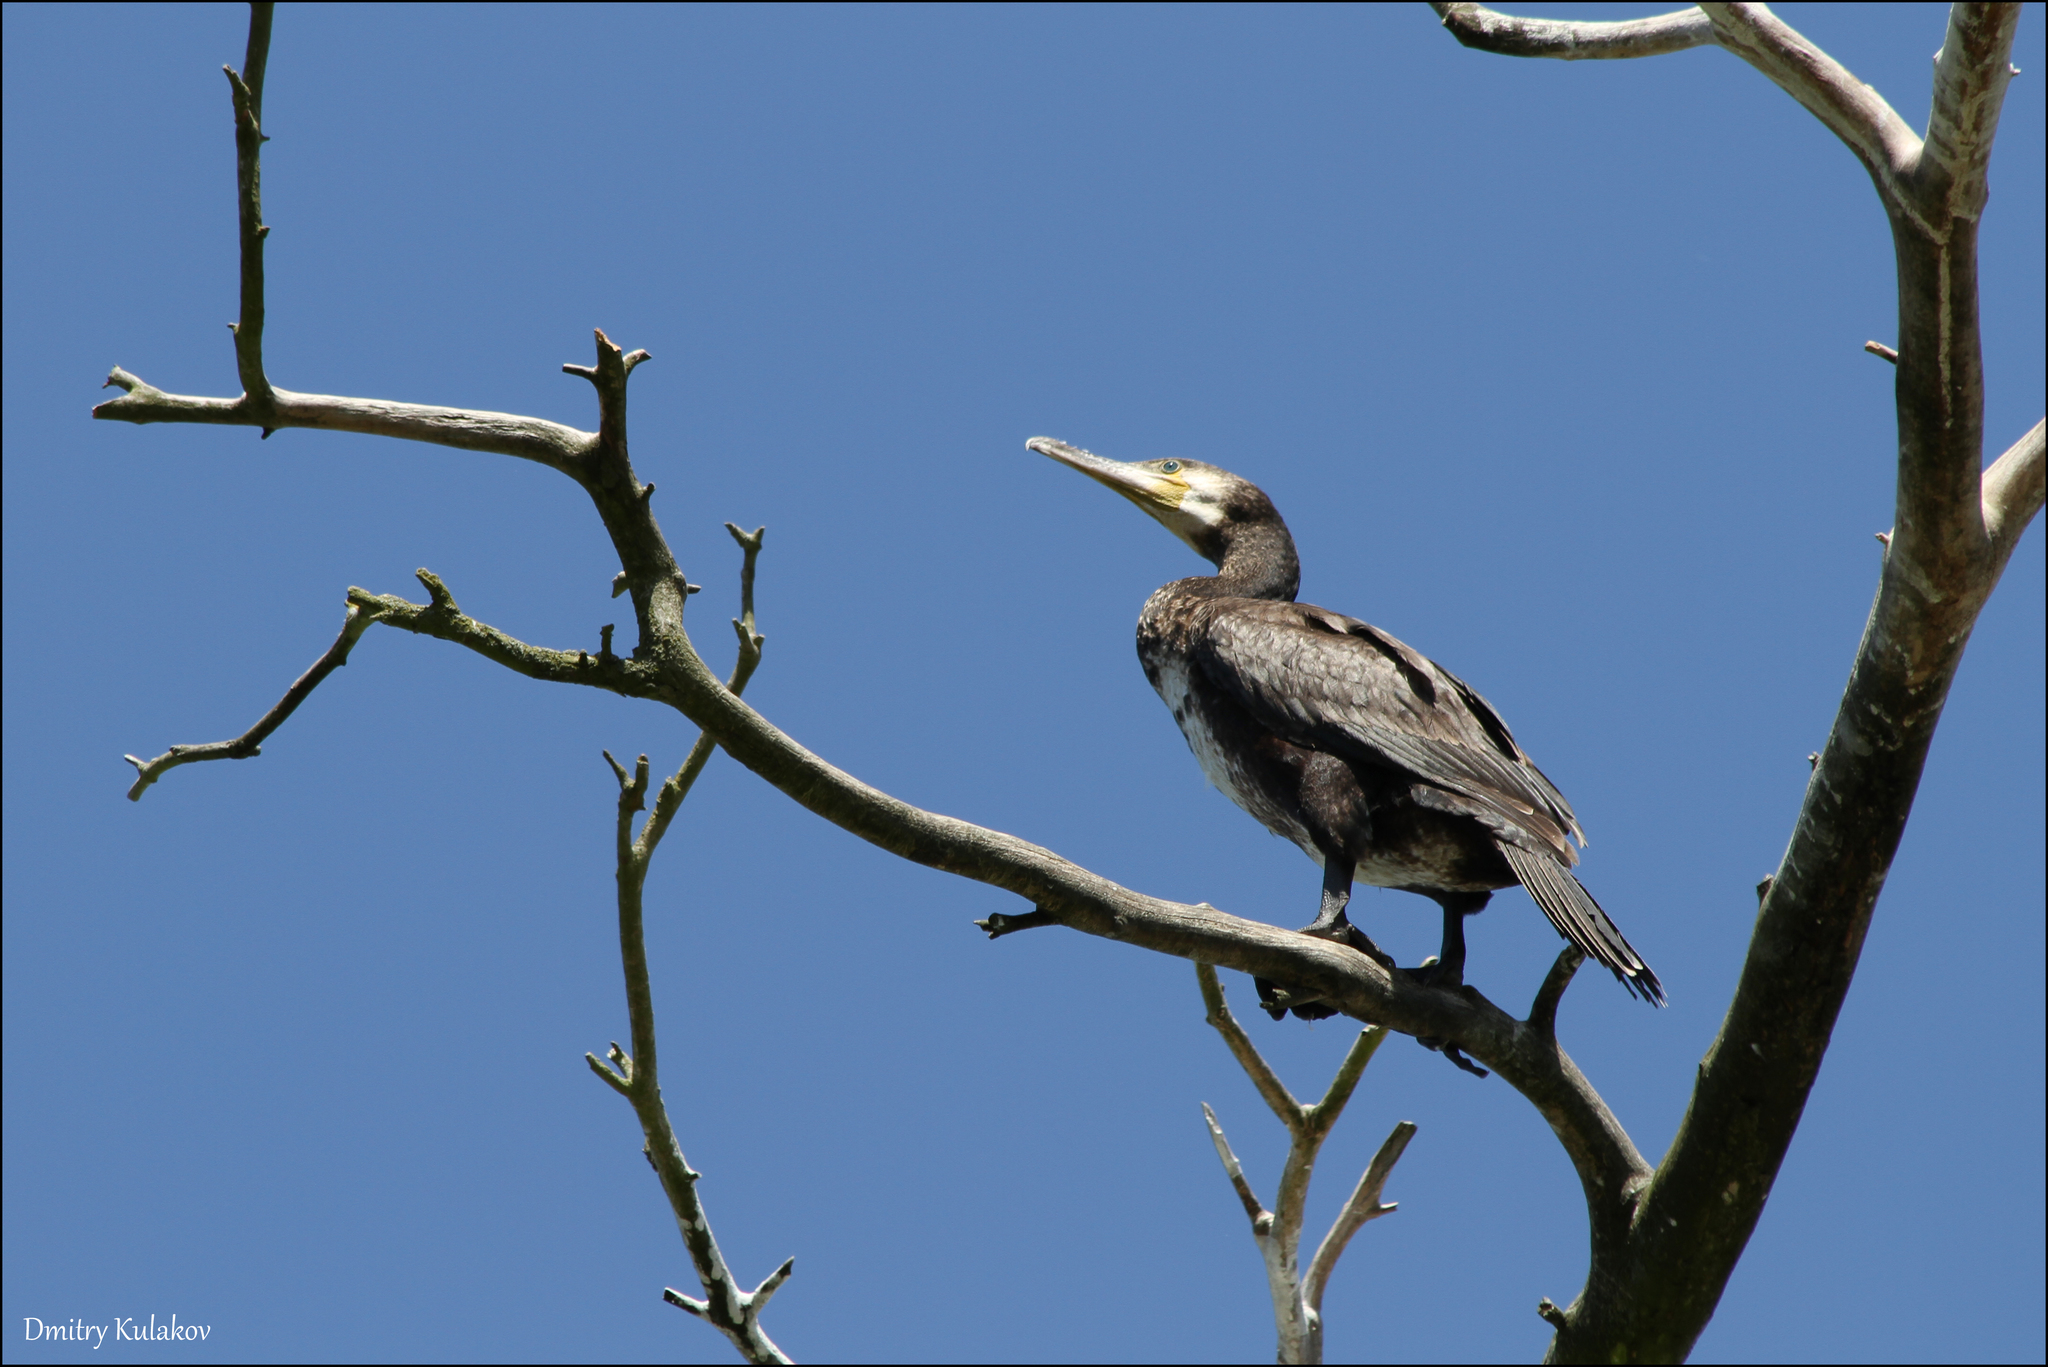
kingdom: Animalia
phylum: Chordata
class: Aves
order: Suliformes
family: Phalacrocoracidae
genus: Phalacrocorax
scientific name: Phalacrocorax carbo
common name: Great cormorant
